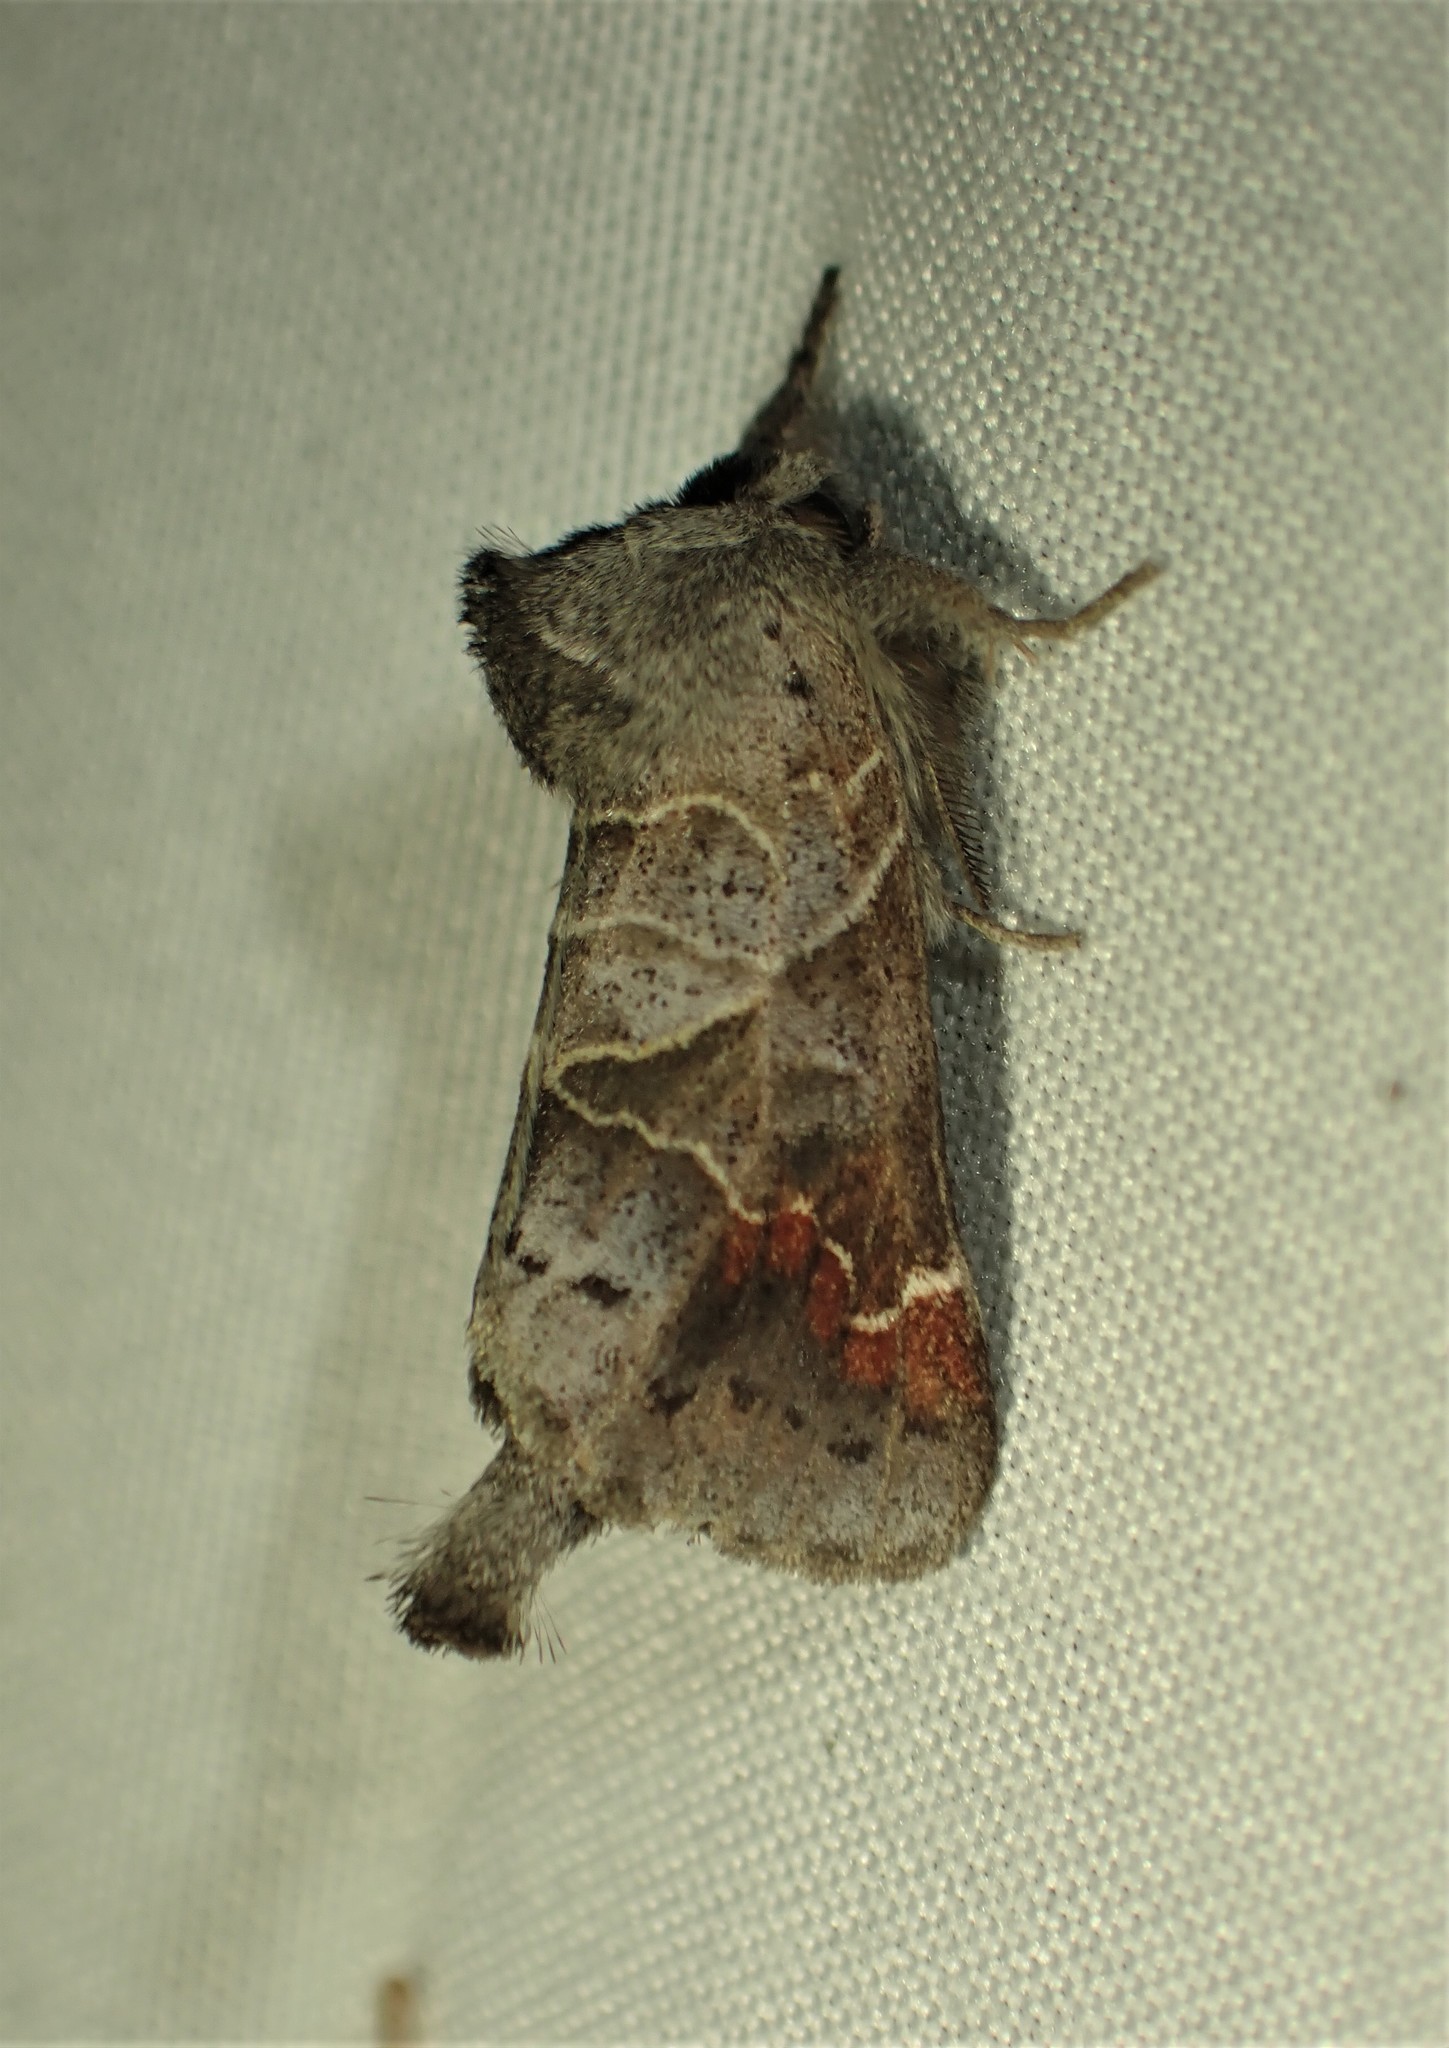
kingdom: Animalia
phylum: Arthropoda
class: Insecta
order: Lepidoptera
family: Notodontidae
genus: Clostera
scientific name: Clostera apicalis
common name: Apical prominent
